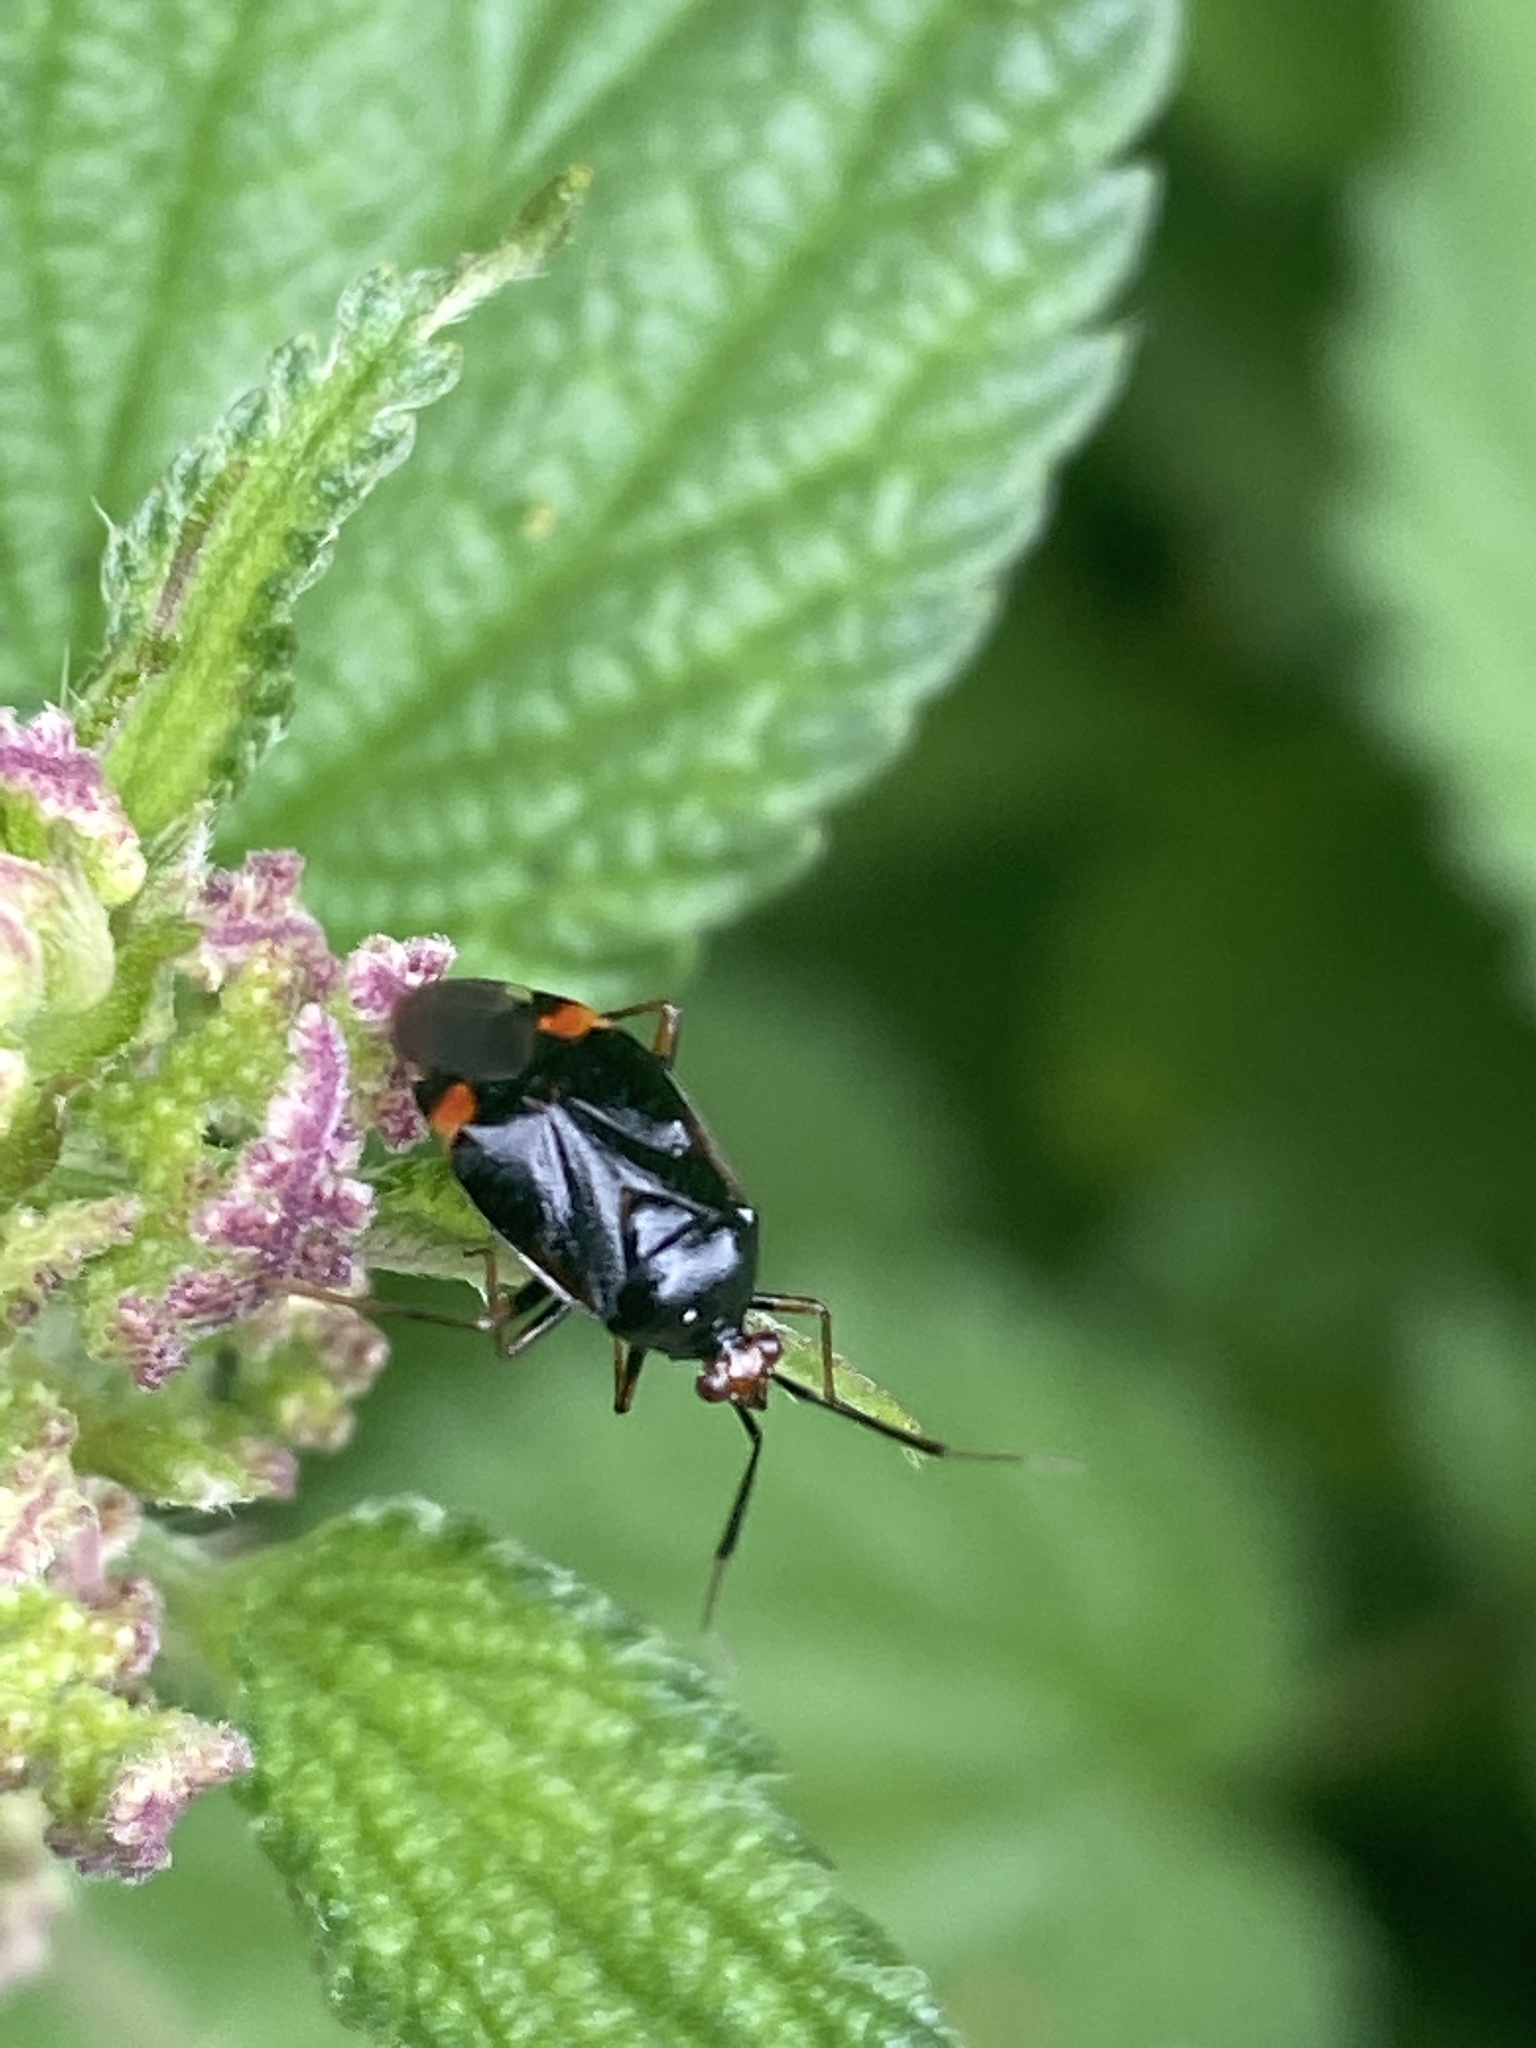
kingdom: Animalia
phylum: Arthropoda
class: Insecta
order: Hemiptera
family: Miridae
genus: Deraeocoris
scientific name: Deraeocoris ruber
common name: Plant bug
